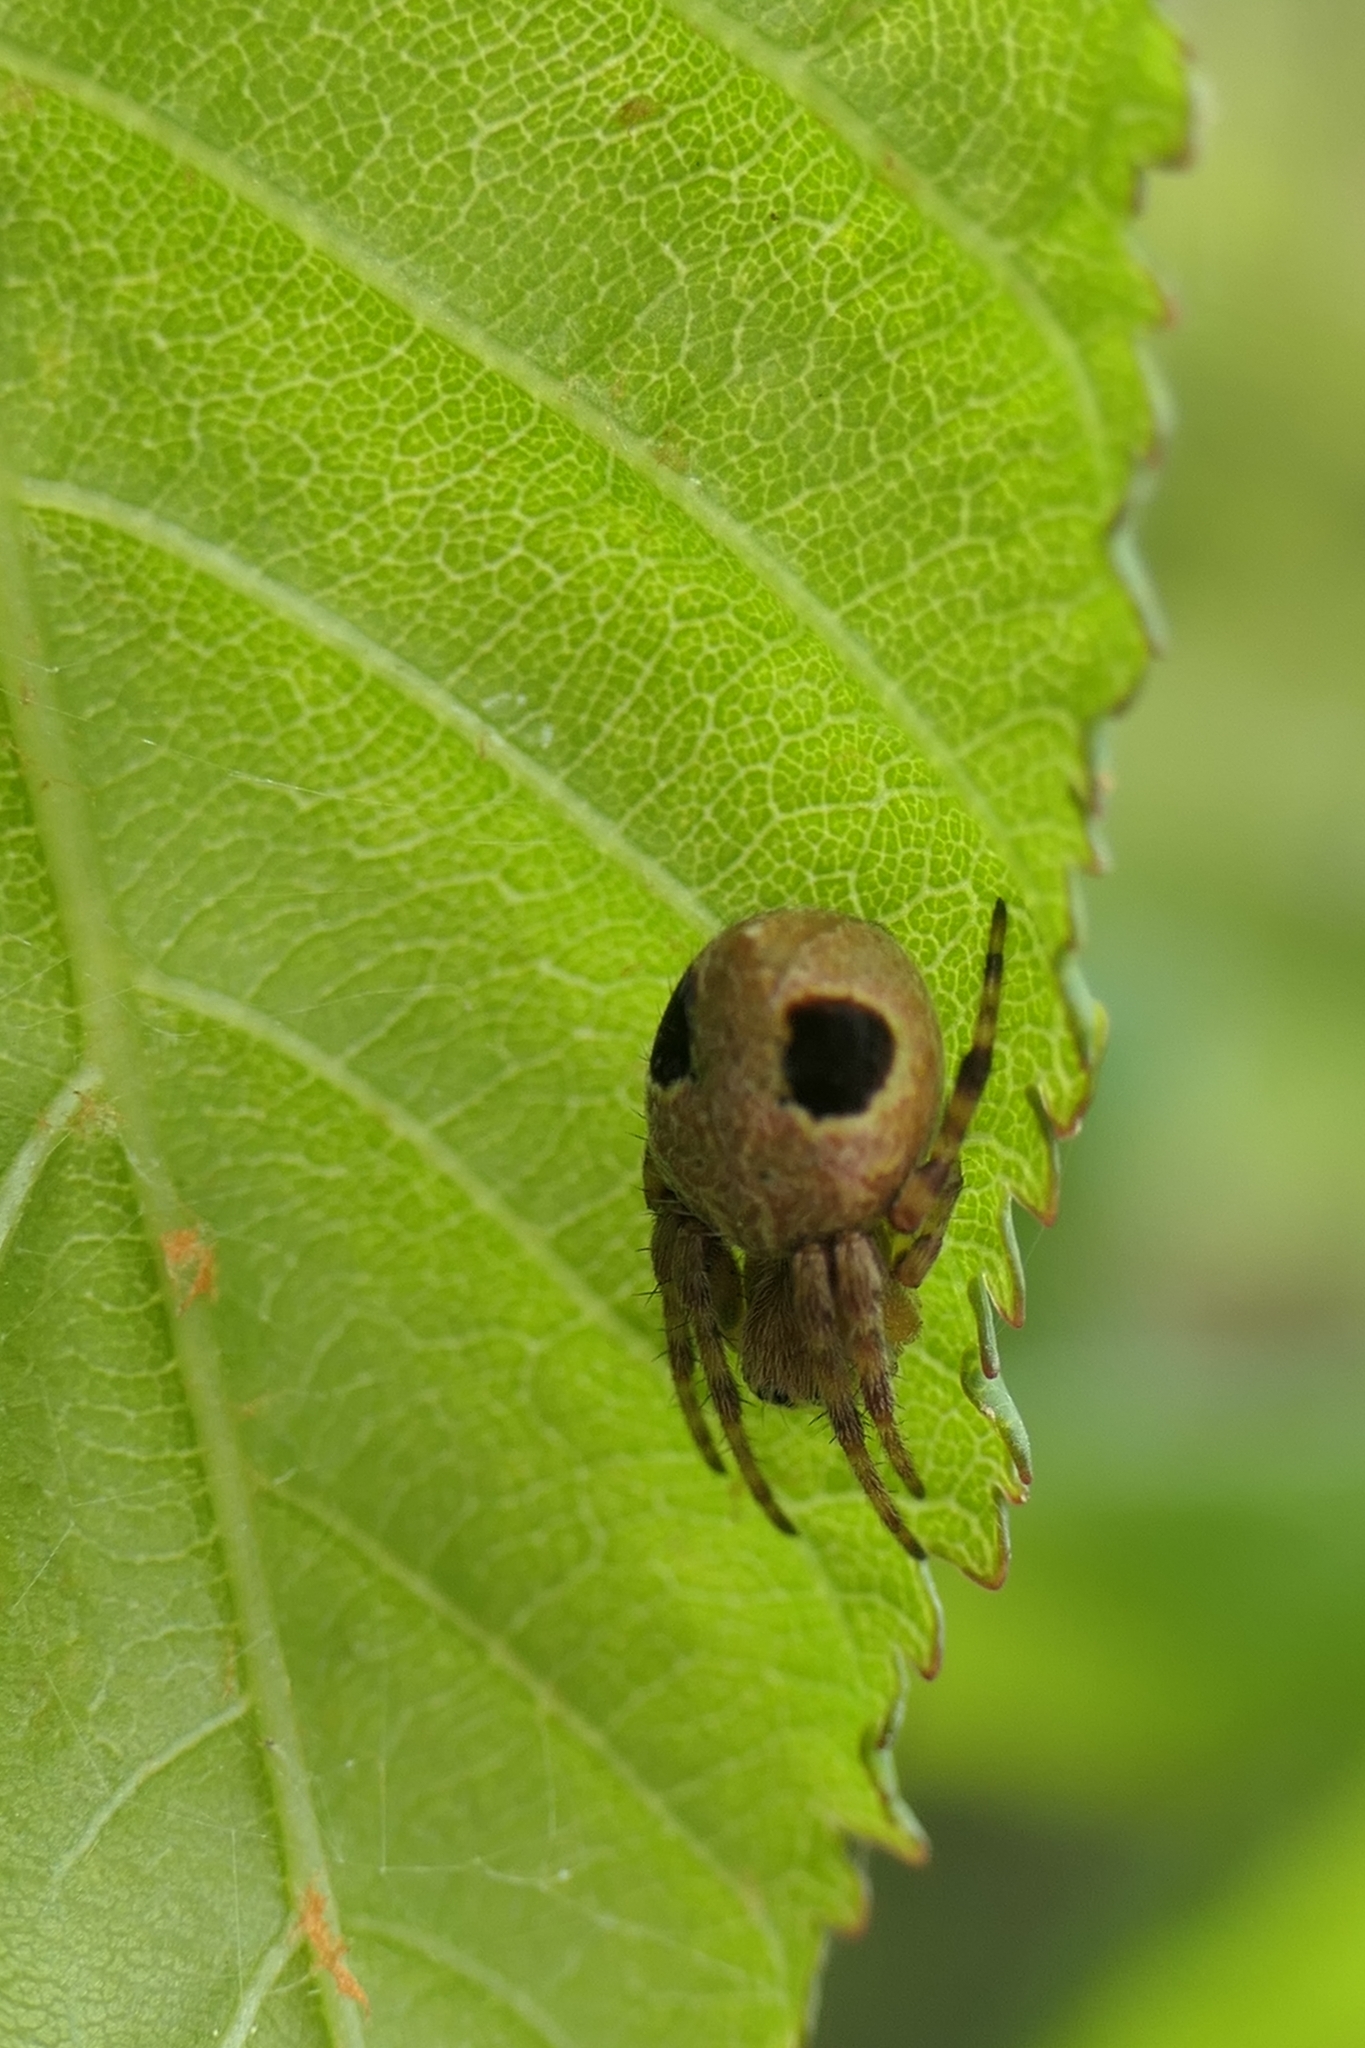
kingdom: Animalia
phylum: Arthropoda
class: Arachnida
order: Araneae
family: Araneidae
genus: Salsa
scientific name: Salsa fuliginata
